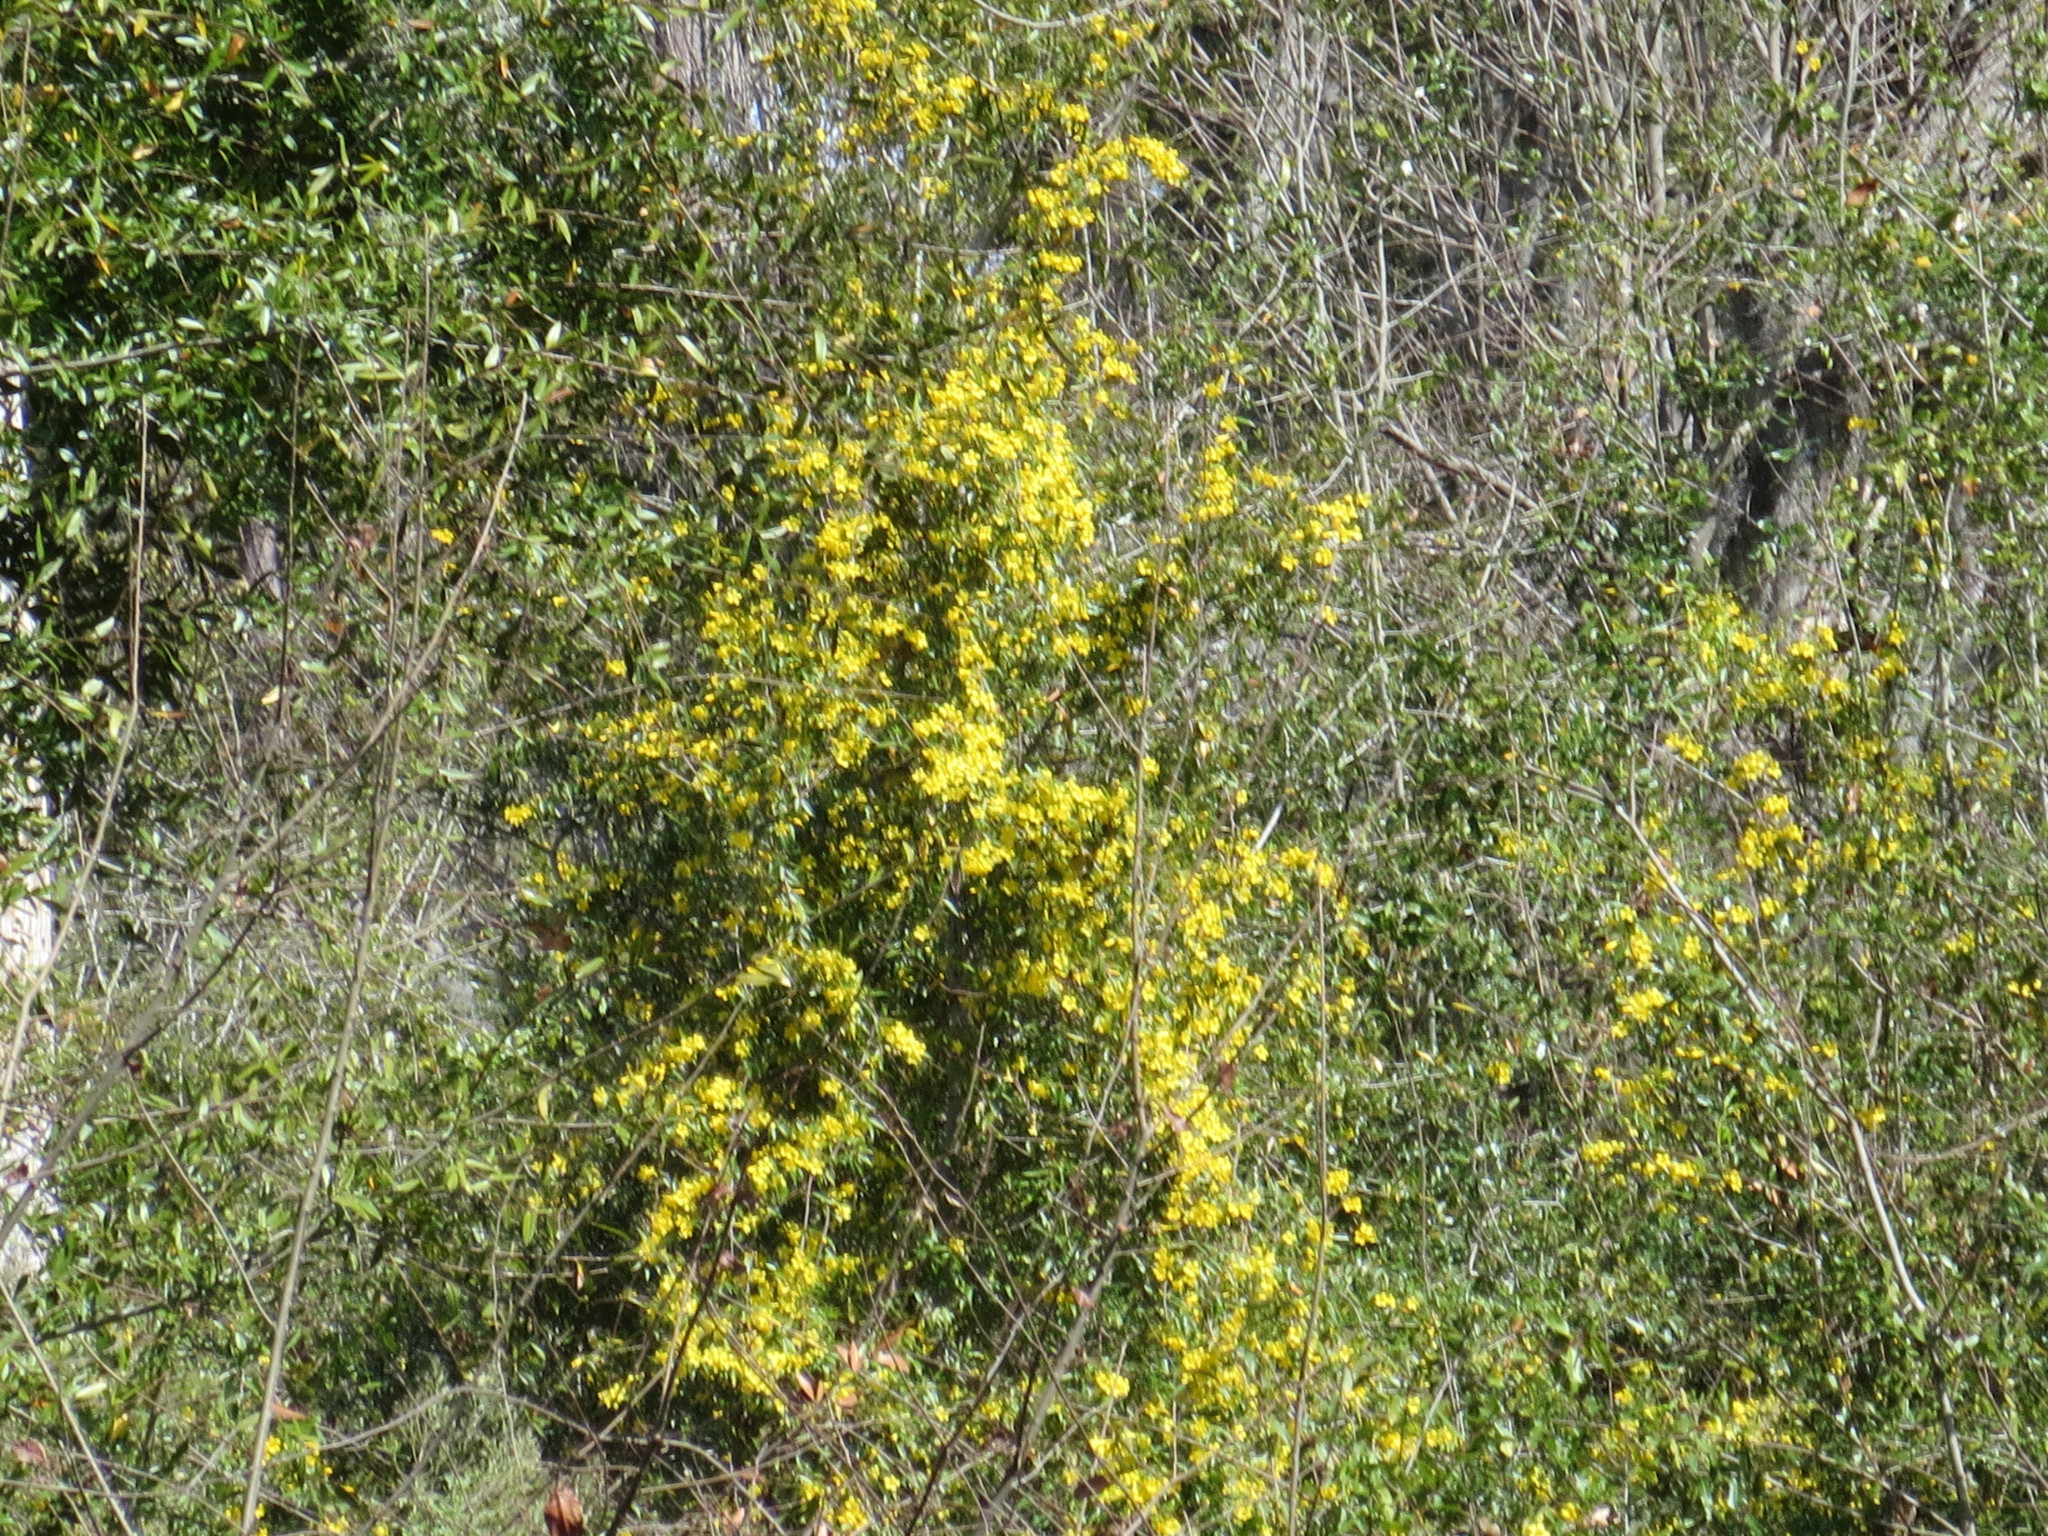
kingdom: Plantae
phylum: Tracheophyta
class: Magnoliopsida
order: Gentianales
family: Gelsemiaceae
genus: Gelsemium
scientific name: Gelsemium sempervirens
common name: Carolina-jasmine
